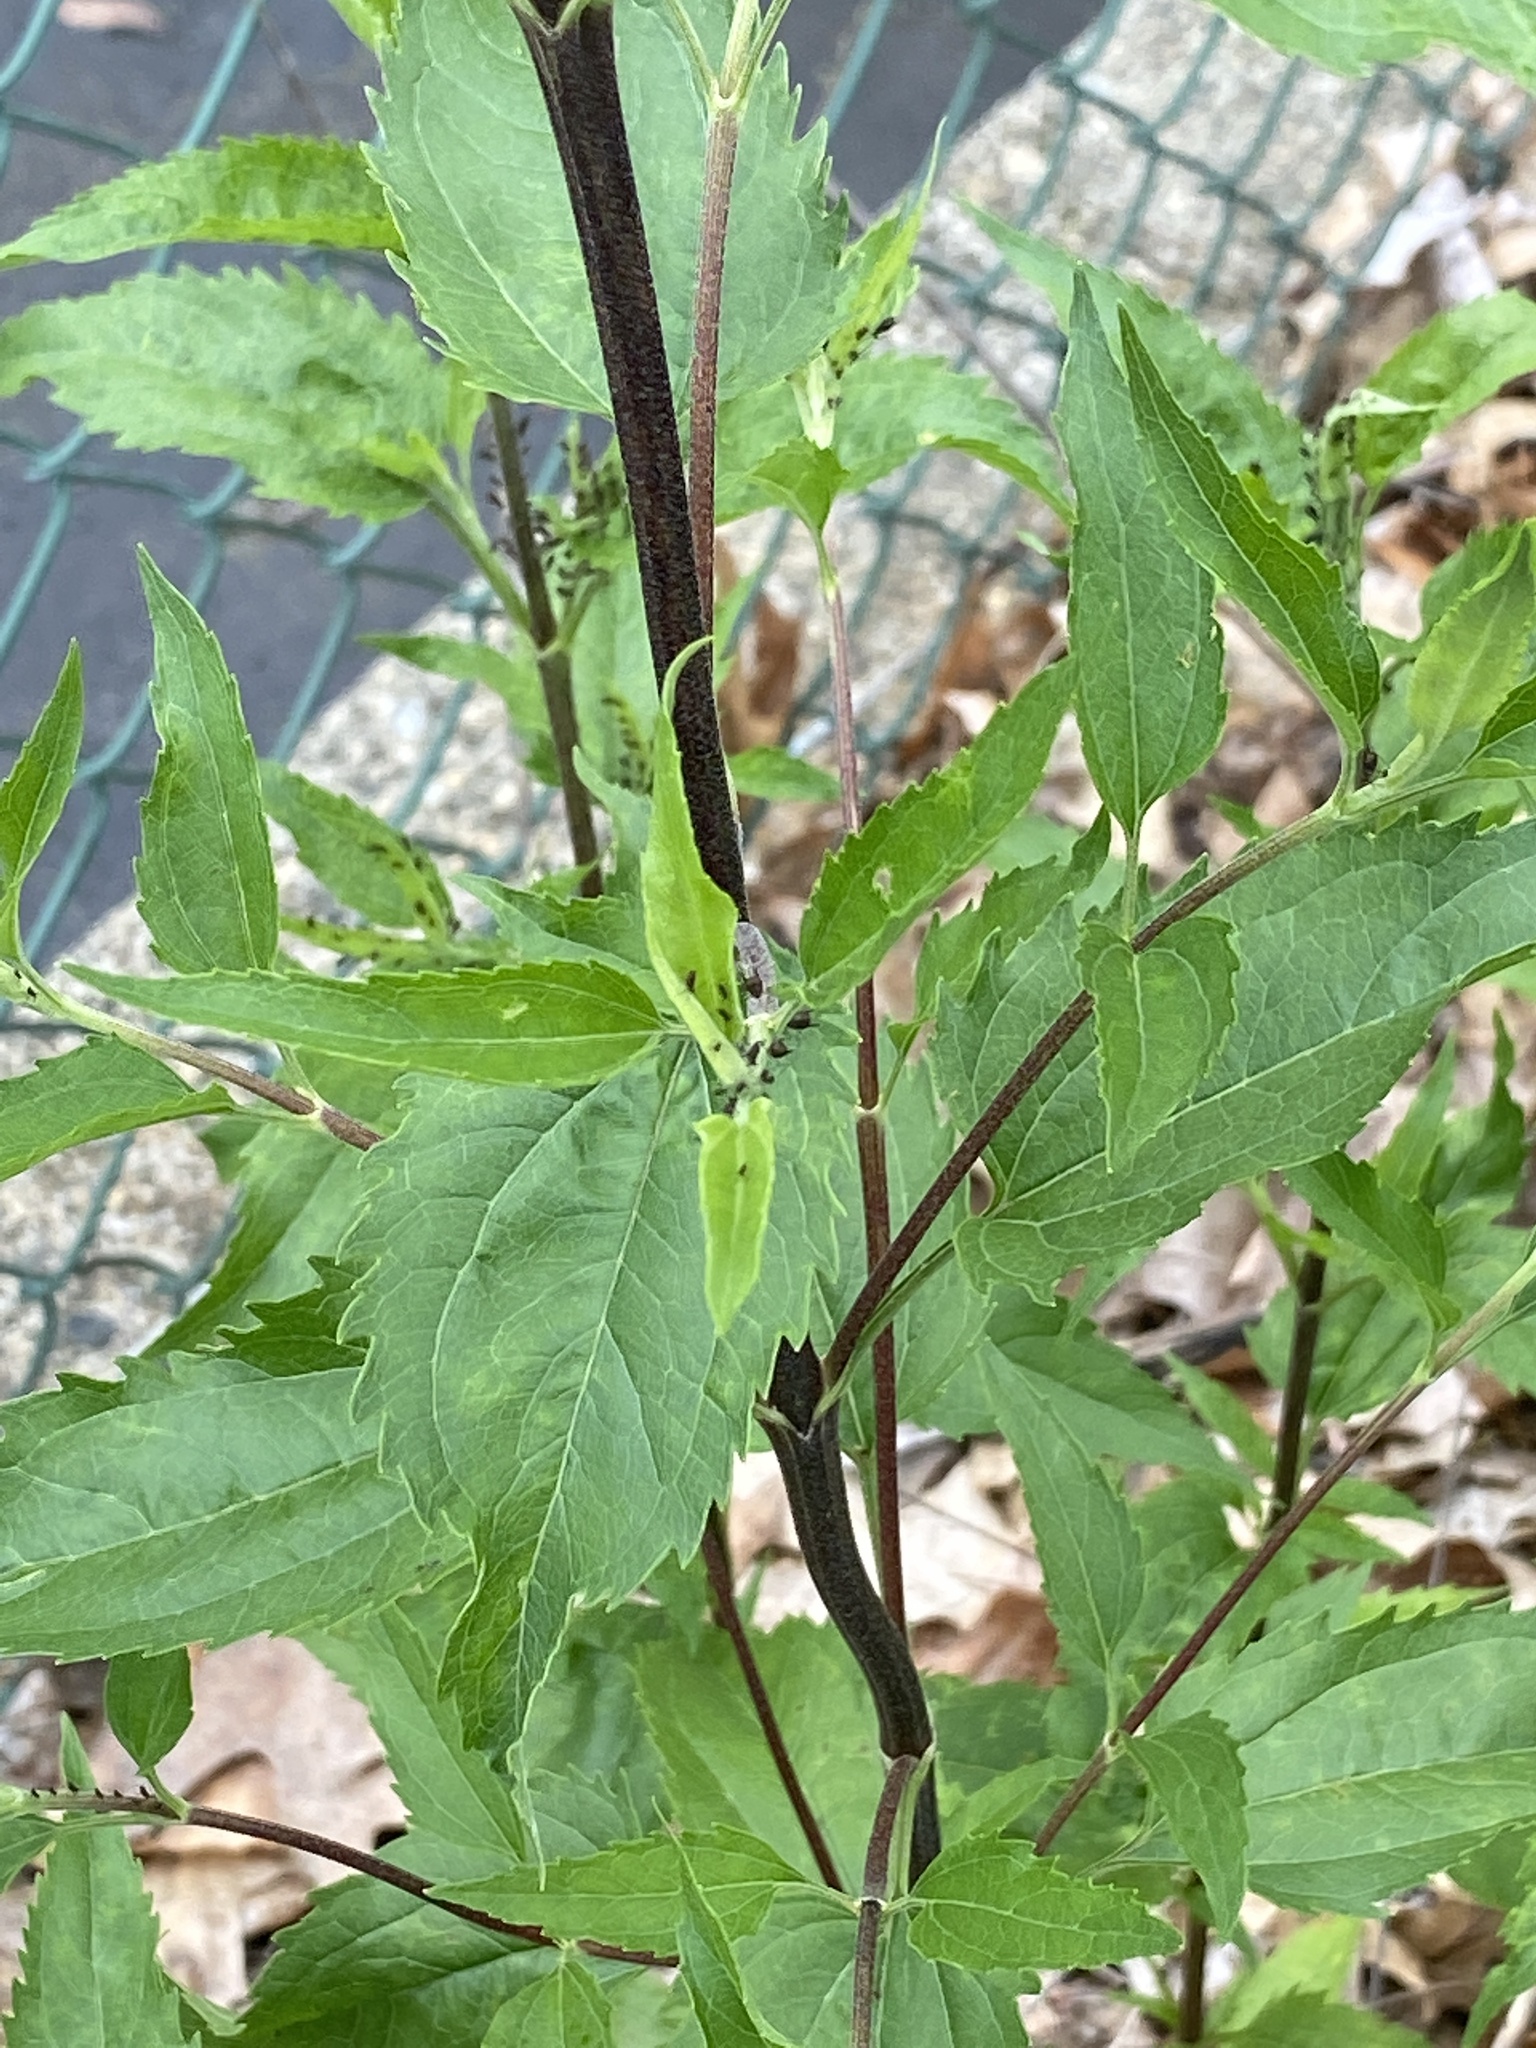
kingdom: Plantae
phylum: Tracheophyta
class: Magnoliopsida
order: Asterales
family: Asteraceae
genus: Eupatorium
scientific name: Eupatorium serotinum
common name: Late boneset
